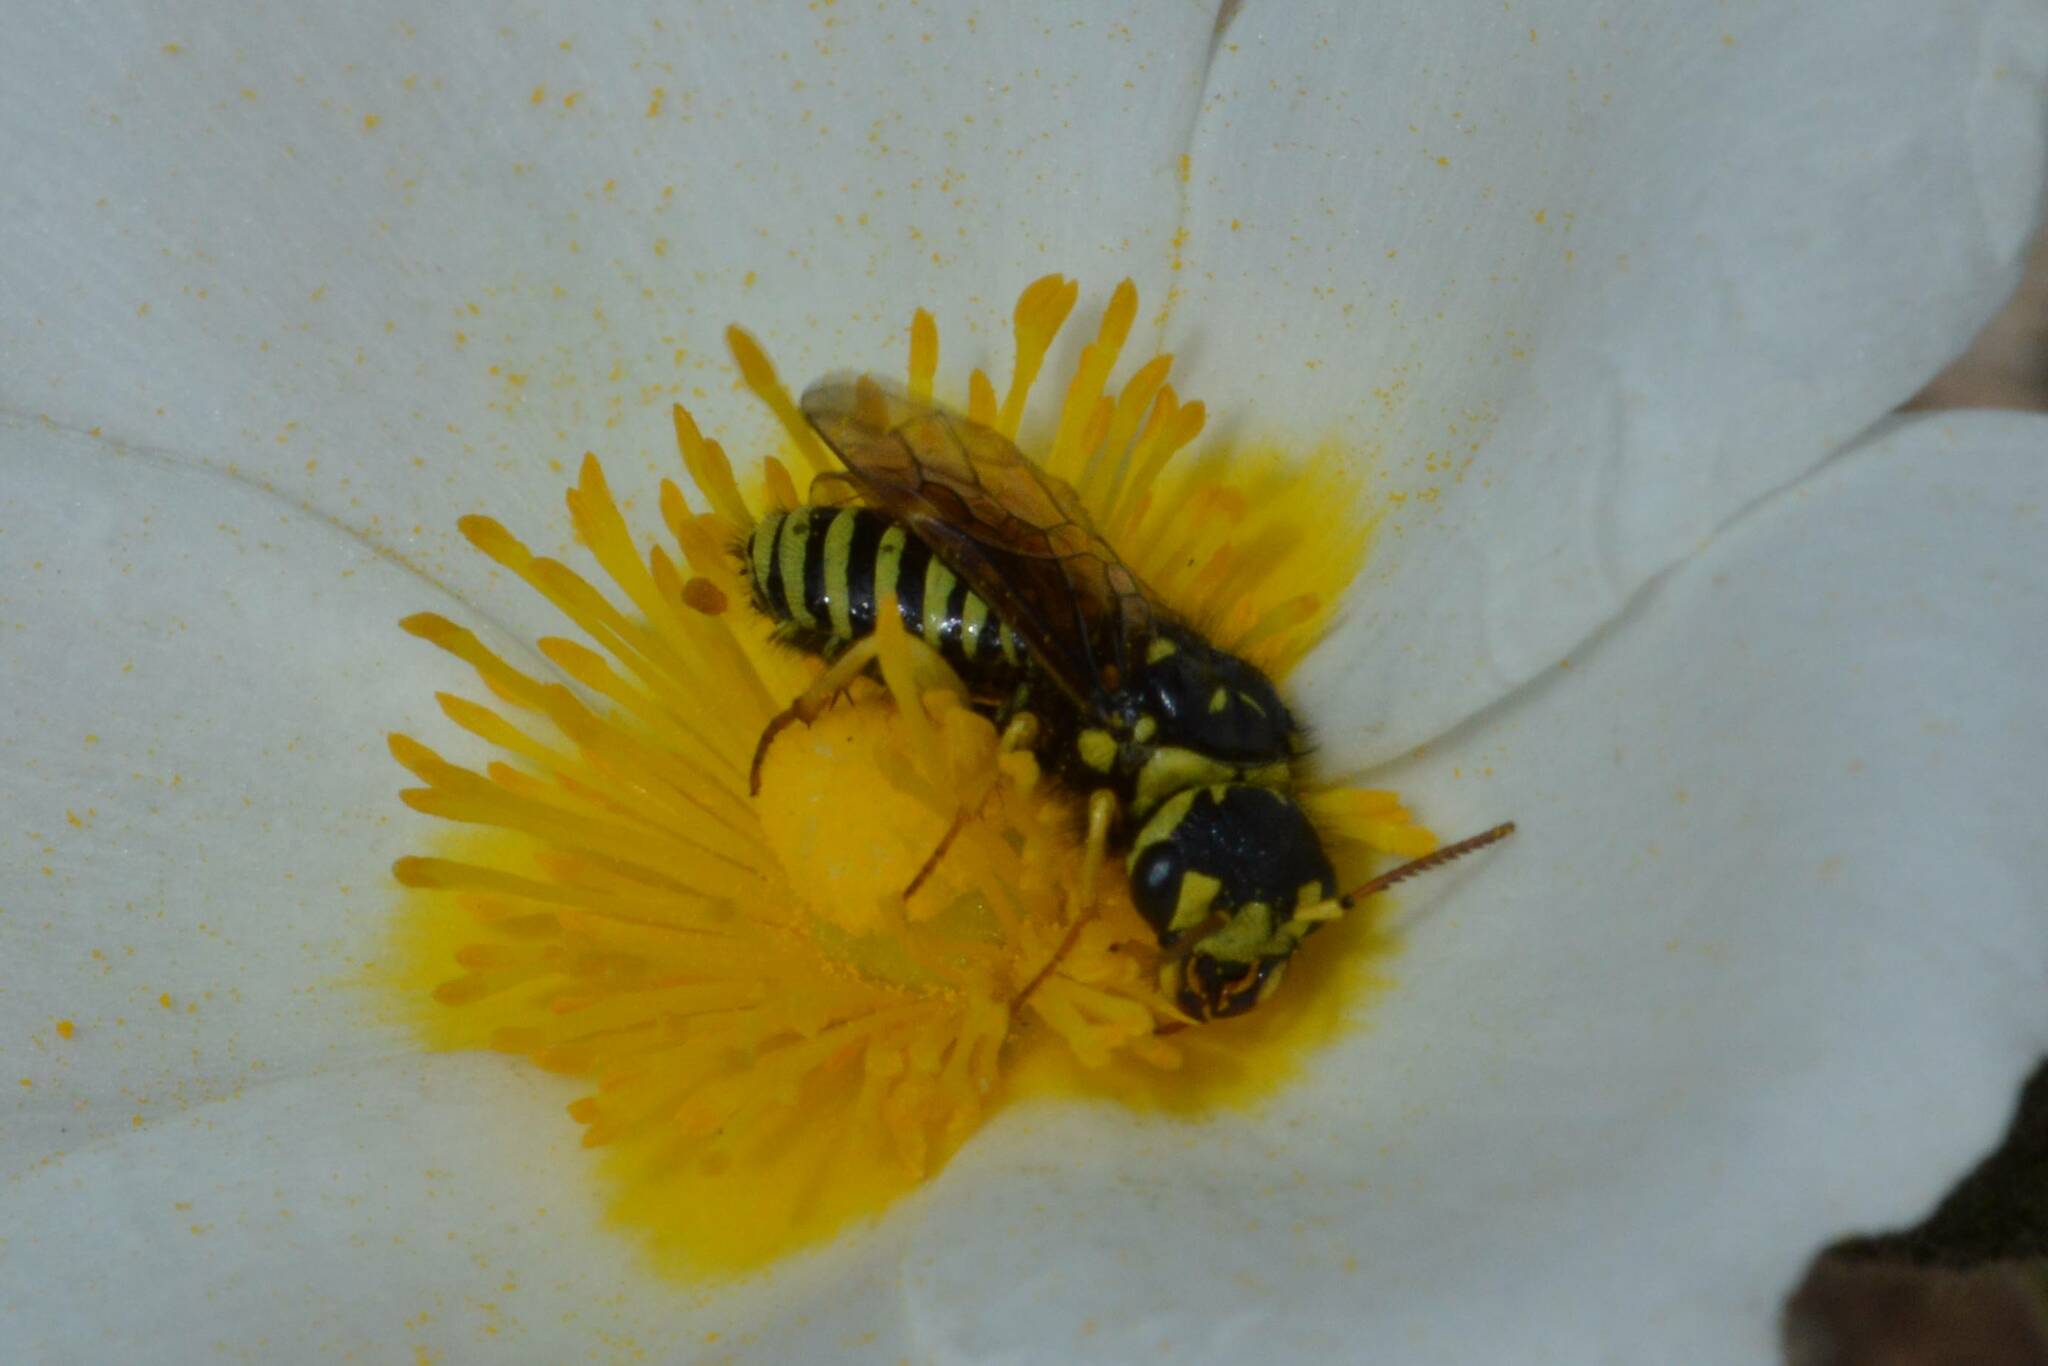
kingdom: Animalia
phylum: Arthropoda
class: Insecta
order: Hymenoptera
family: Megalodontesidae
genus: Megalodontes
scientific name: Megalodontes lacourti
